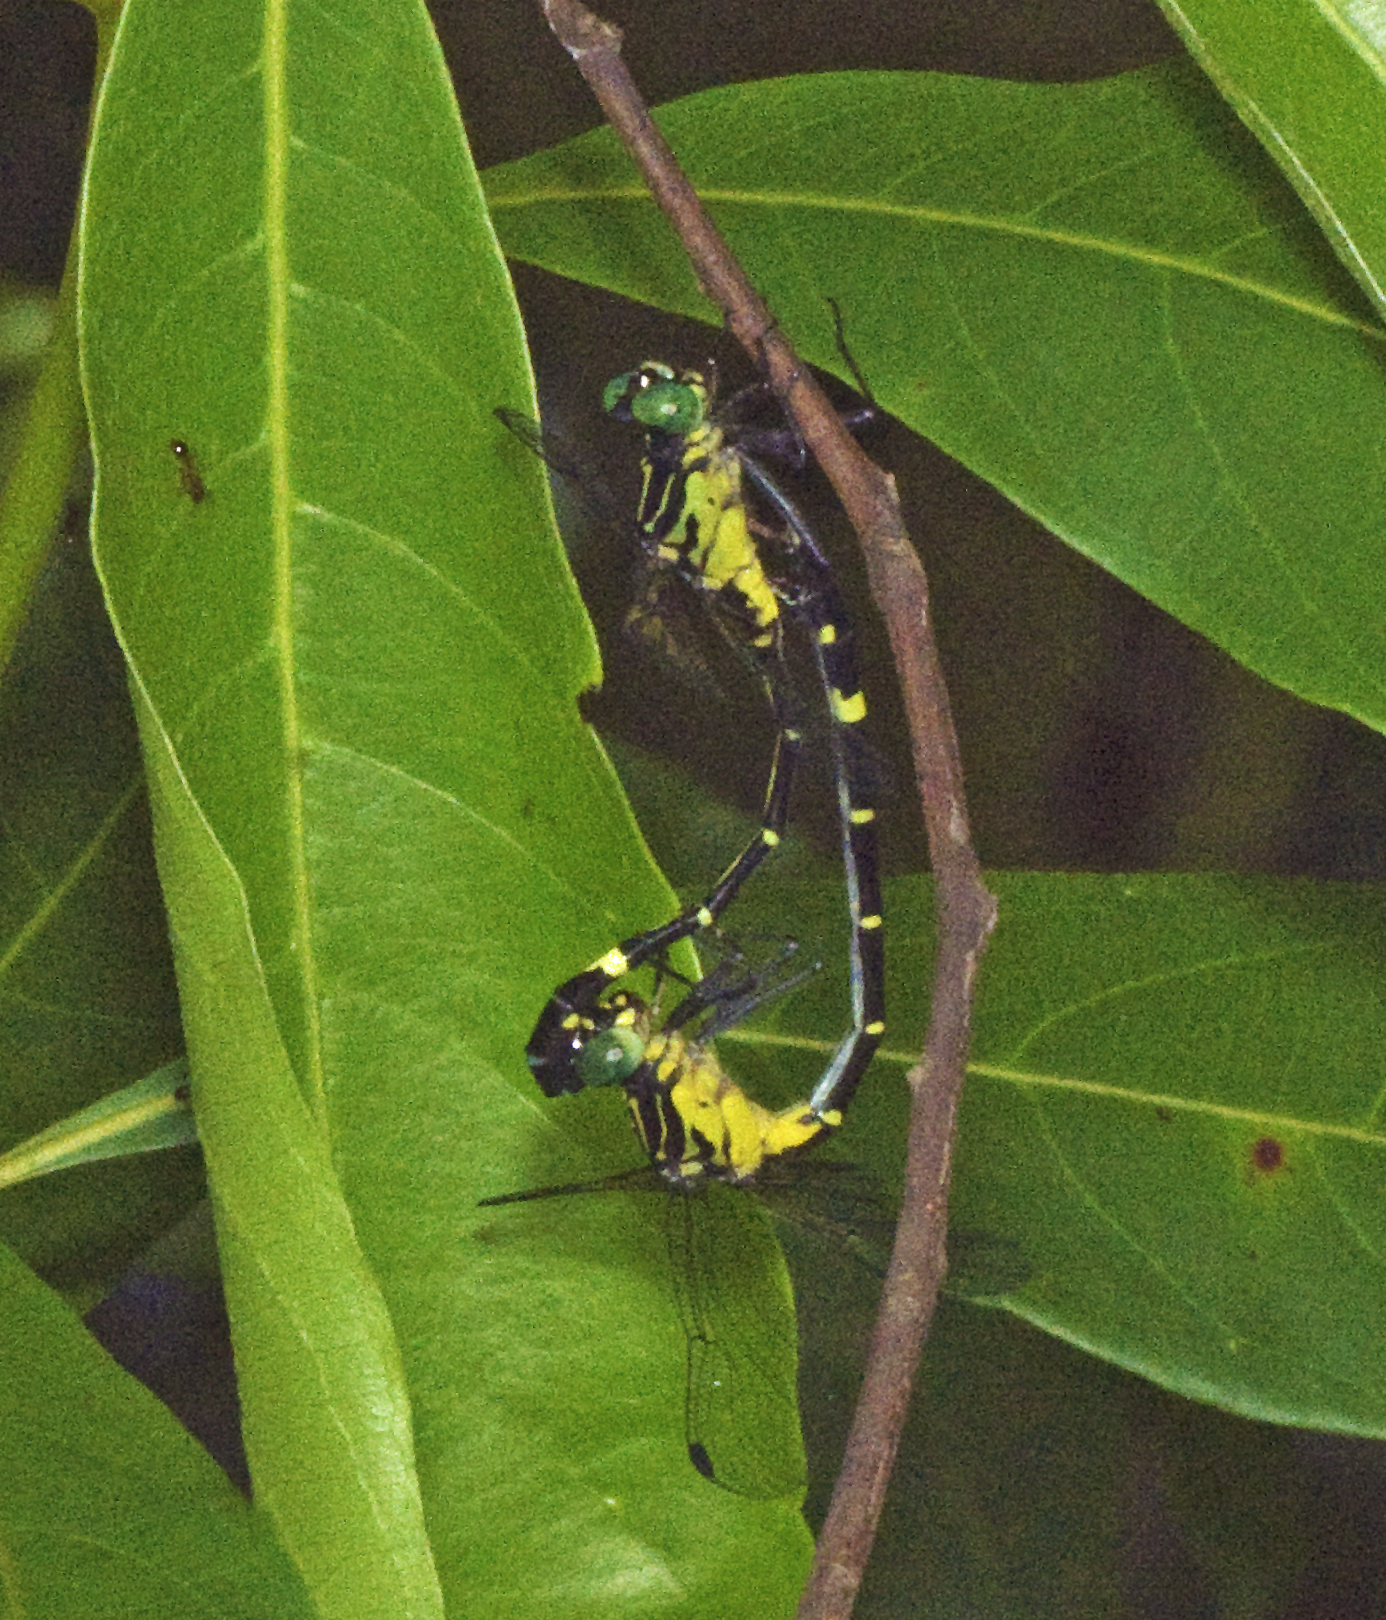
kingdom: Animalia
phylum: Arthropoda
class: Insecta
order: Odonata
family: Gomphidae
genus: Austrogomphus
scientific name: Austrogomphus prasinus
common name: Lemon-tipped hunter
